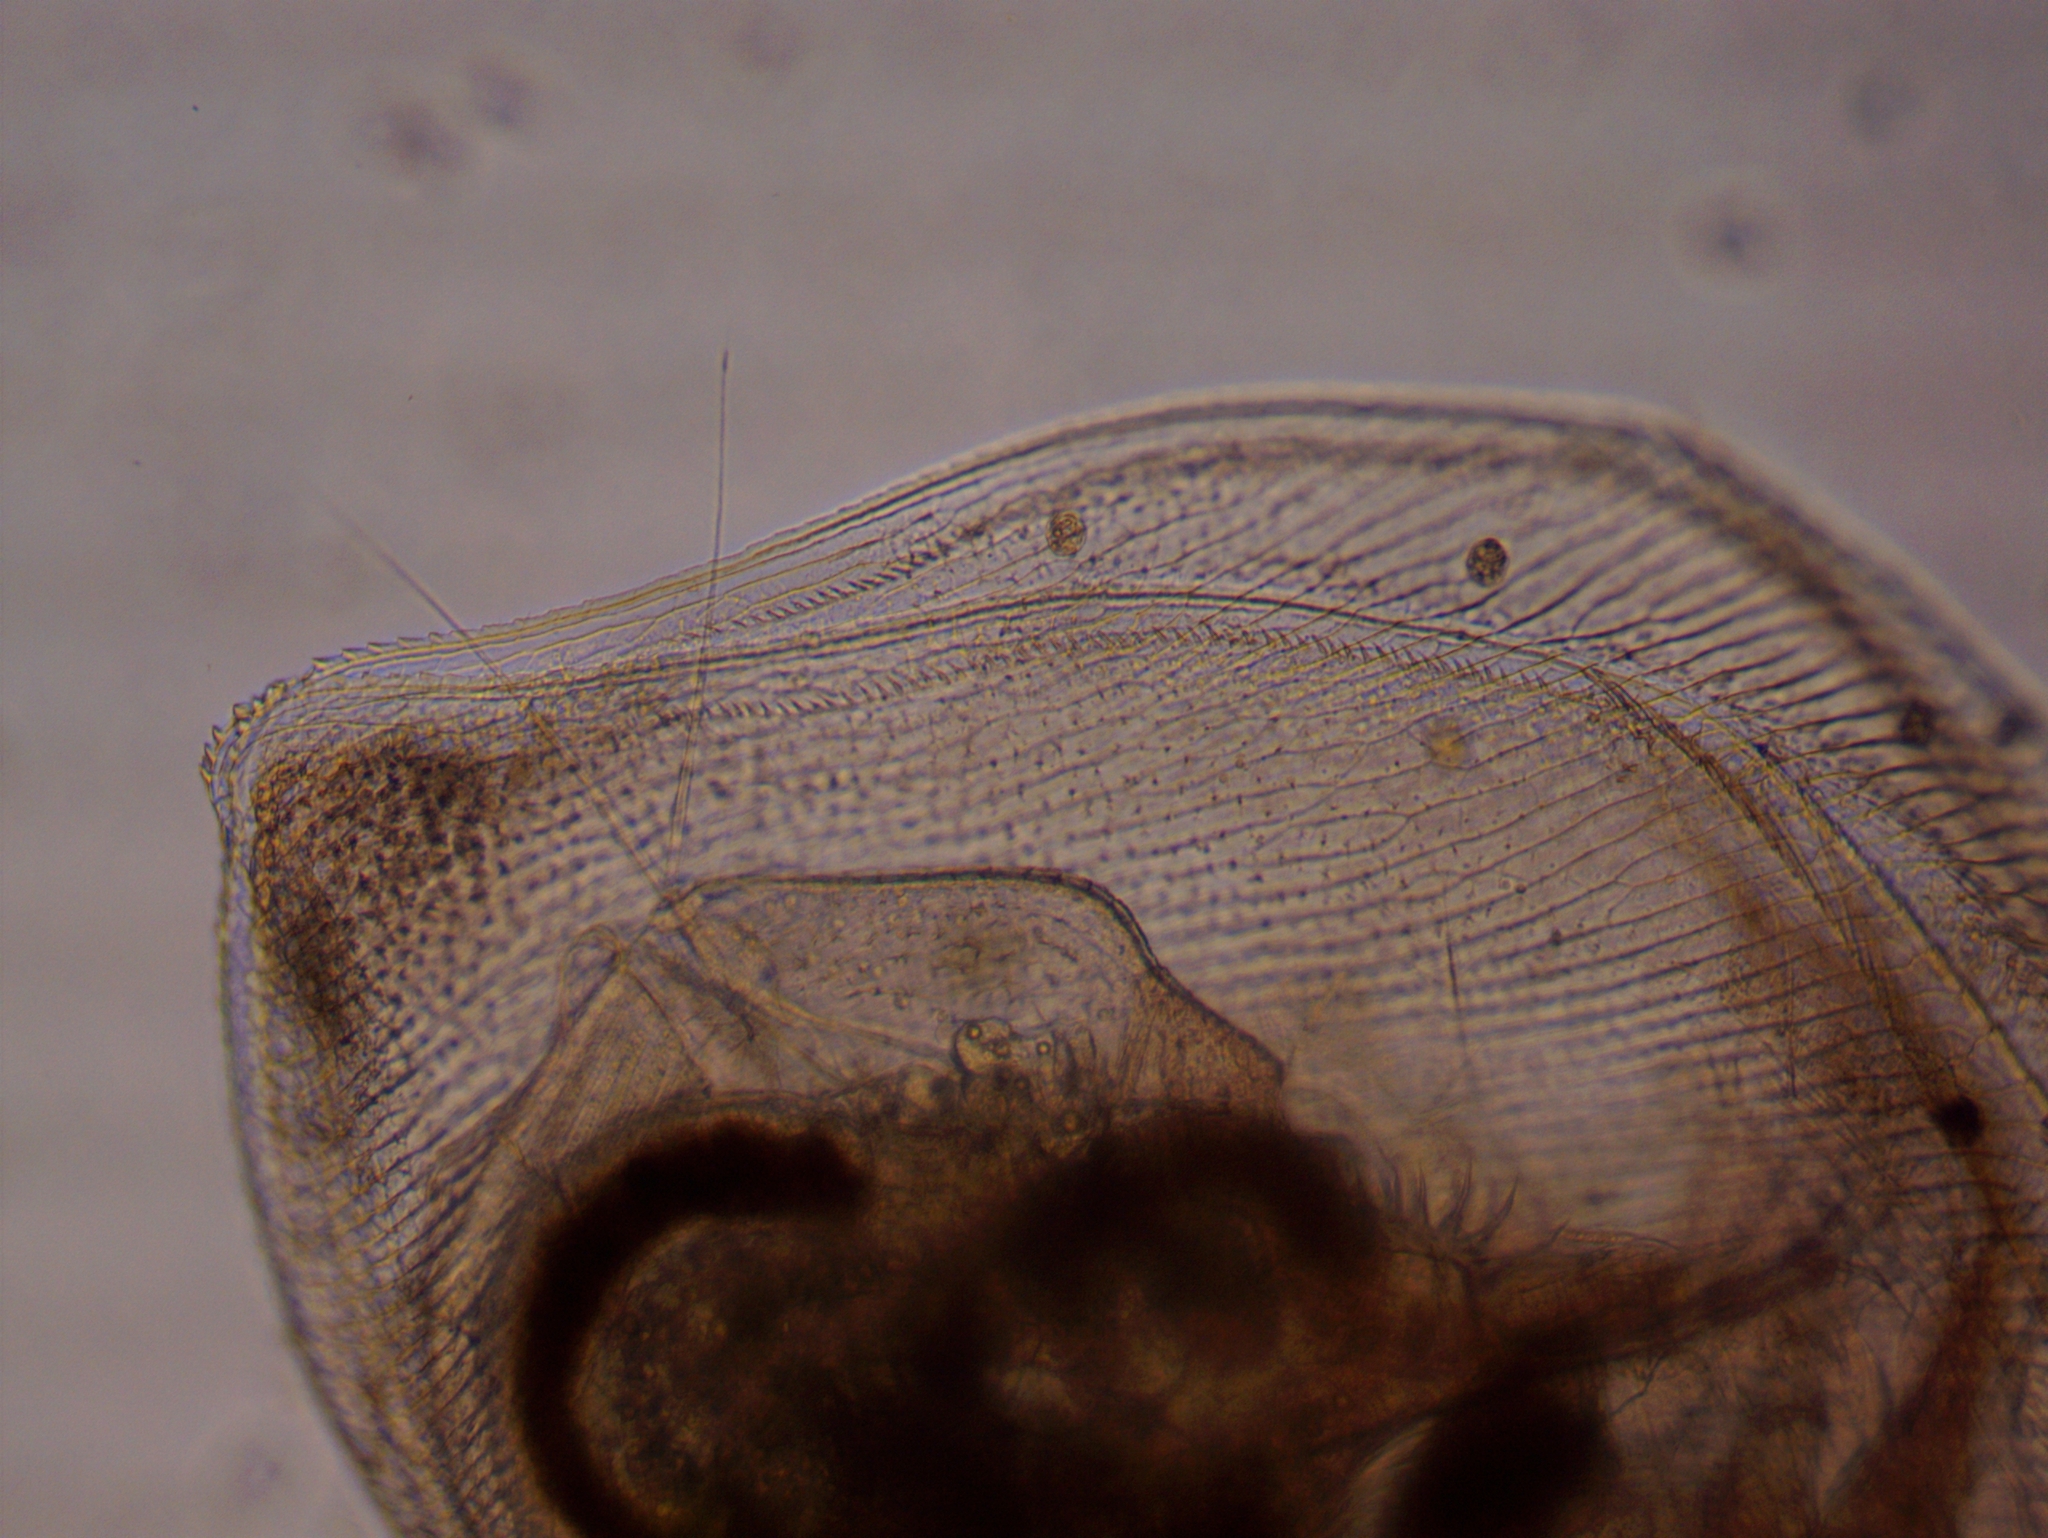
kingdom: Animalia
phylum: Arthropoda
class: Branchiopoda
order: Diplostraca
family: Daphniidae
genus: Simocephalus
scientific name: Simocephalus exspinosus
